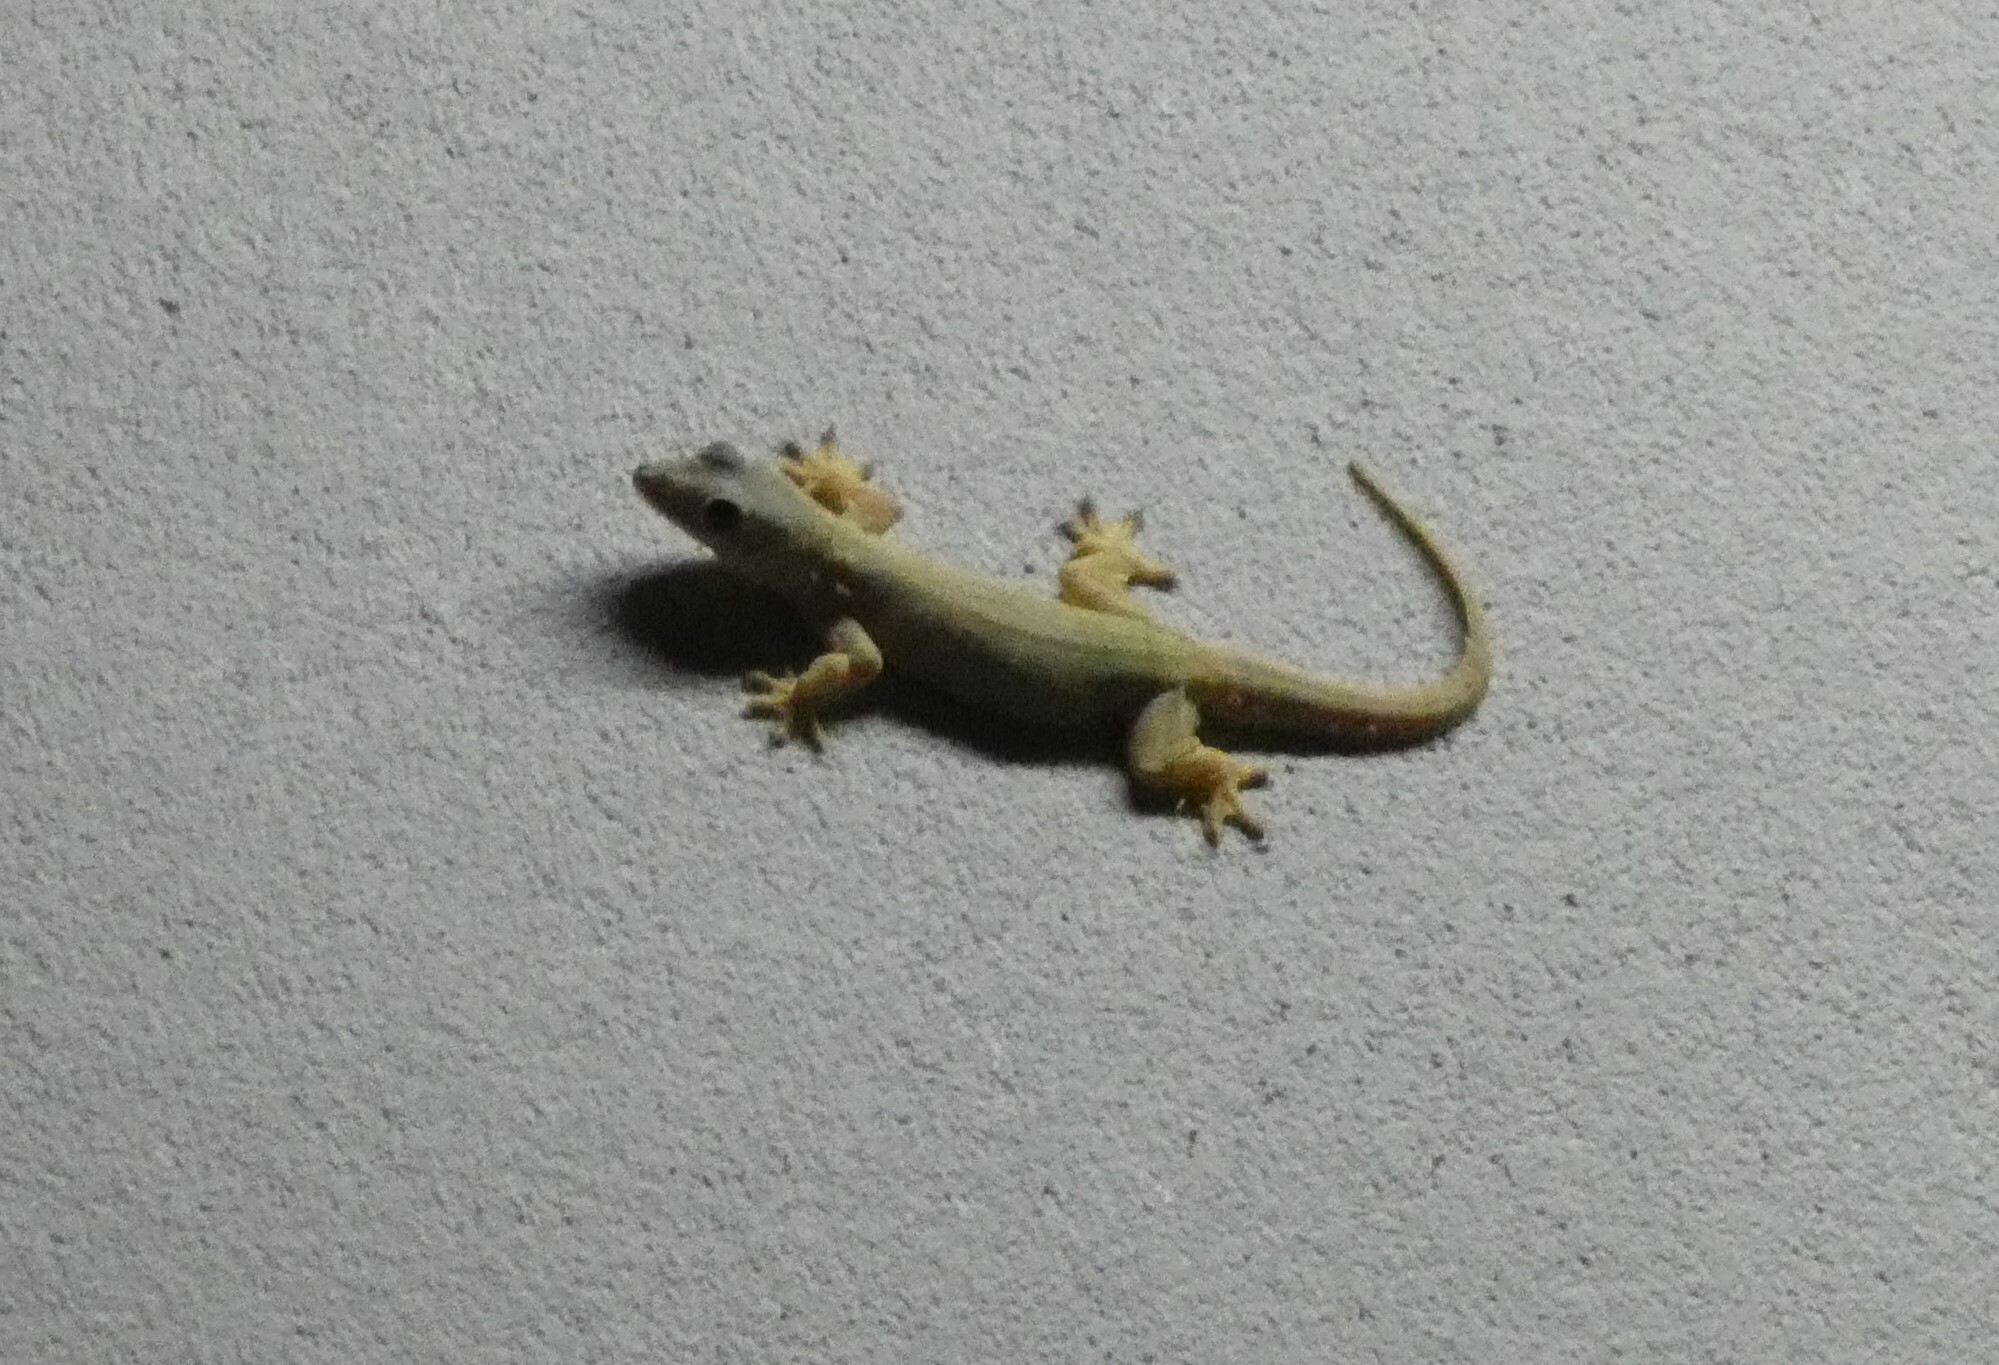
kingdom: Animalia
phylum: Chordata
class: Squamata
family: Gekkonidae
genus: Hemidactylus
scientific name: Hemidactylus platyurus
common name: Flat-tailed house gecko
